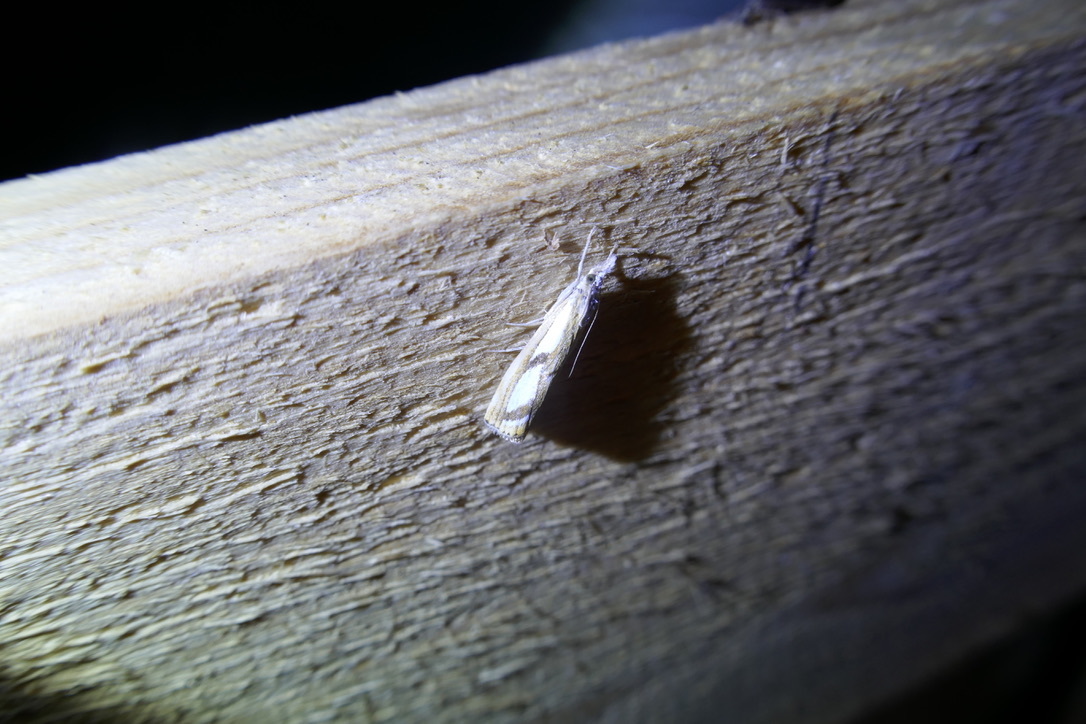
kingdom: Animalia
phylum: Arthropoda
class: Insecta
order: Lepidoptera
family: Crambidae
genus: Catoptria
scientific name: Catoptria
